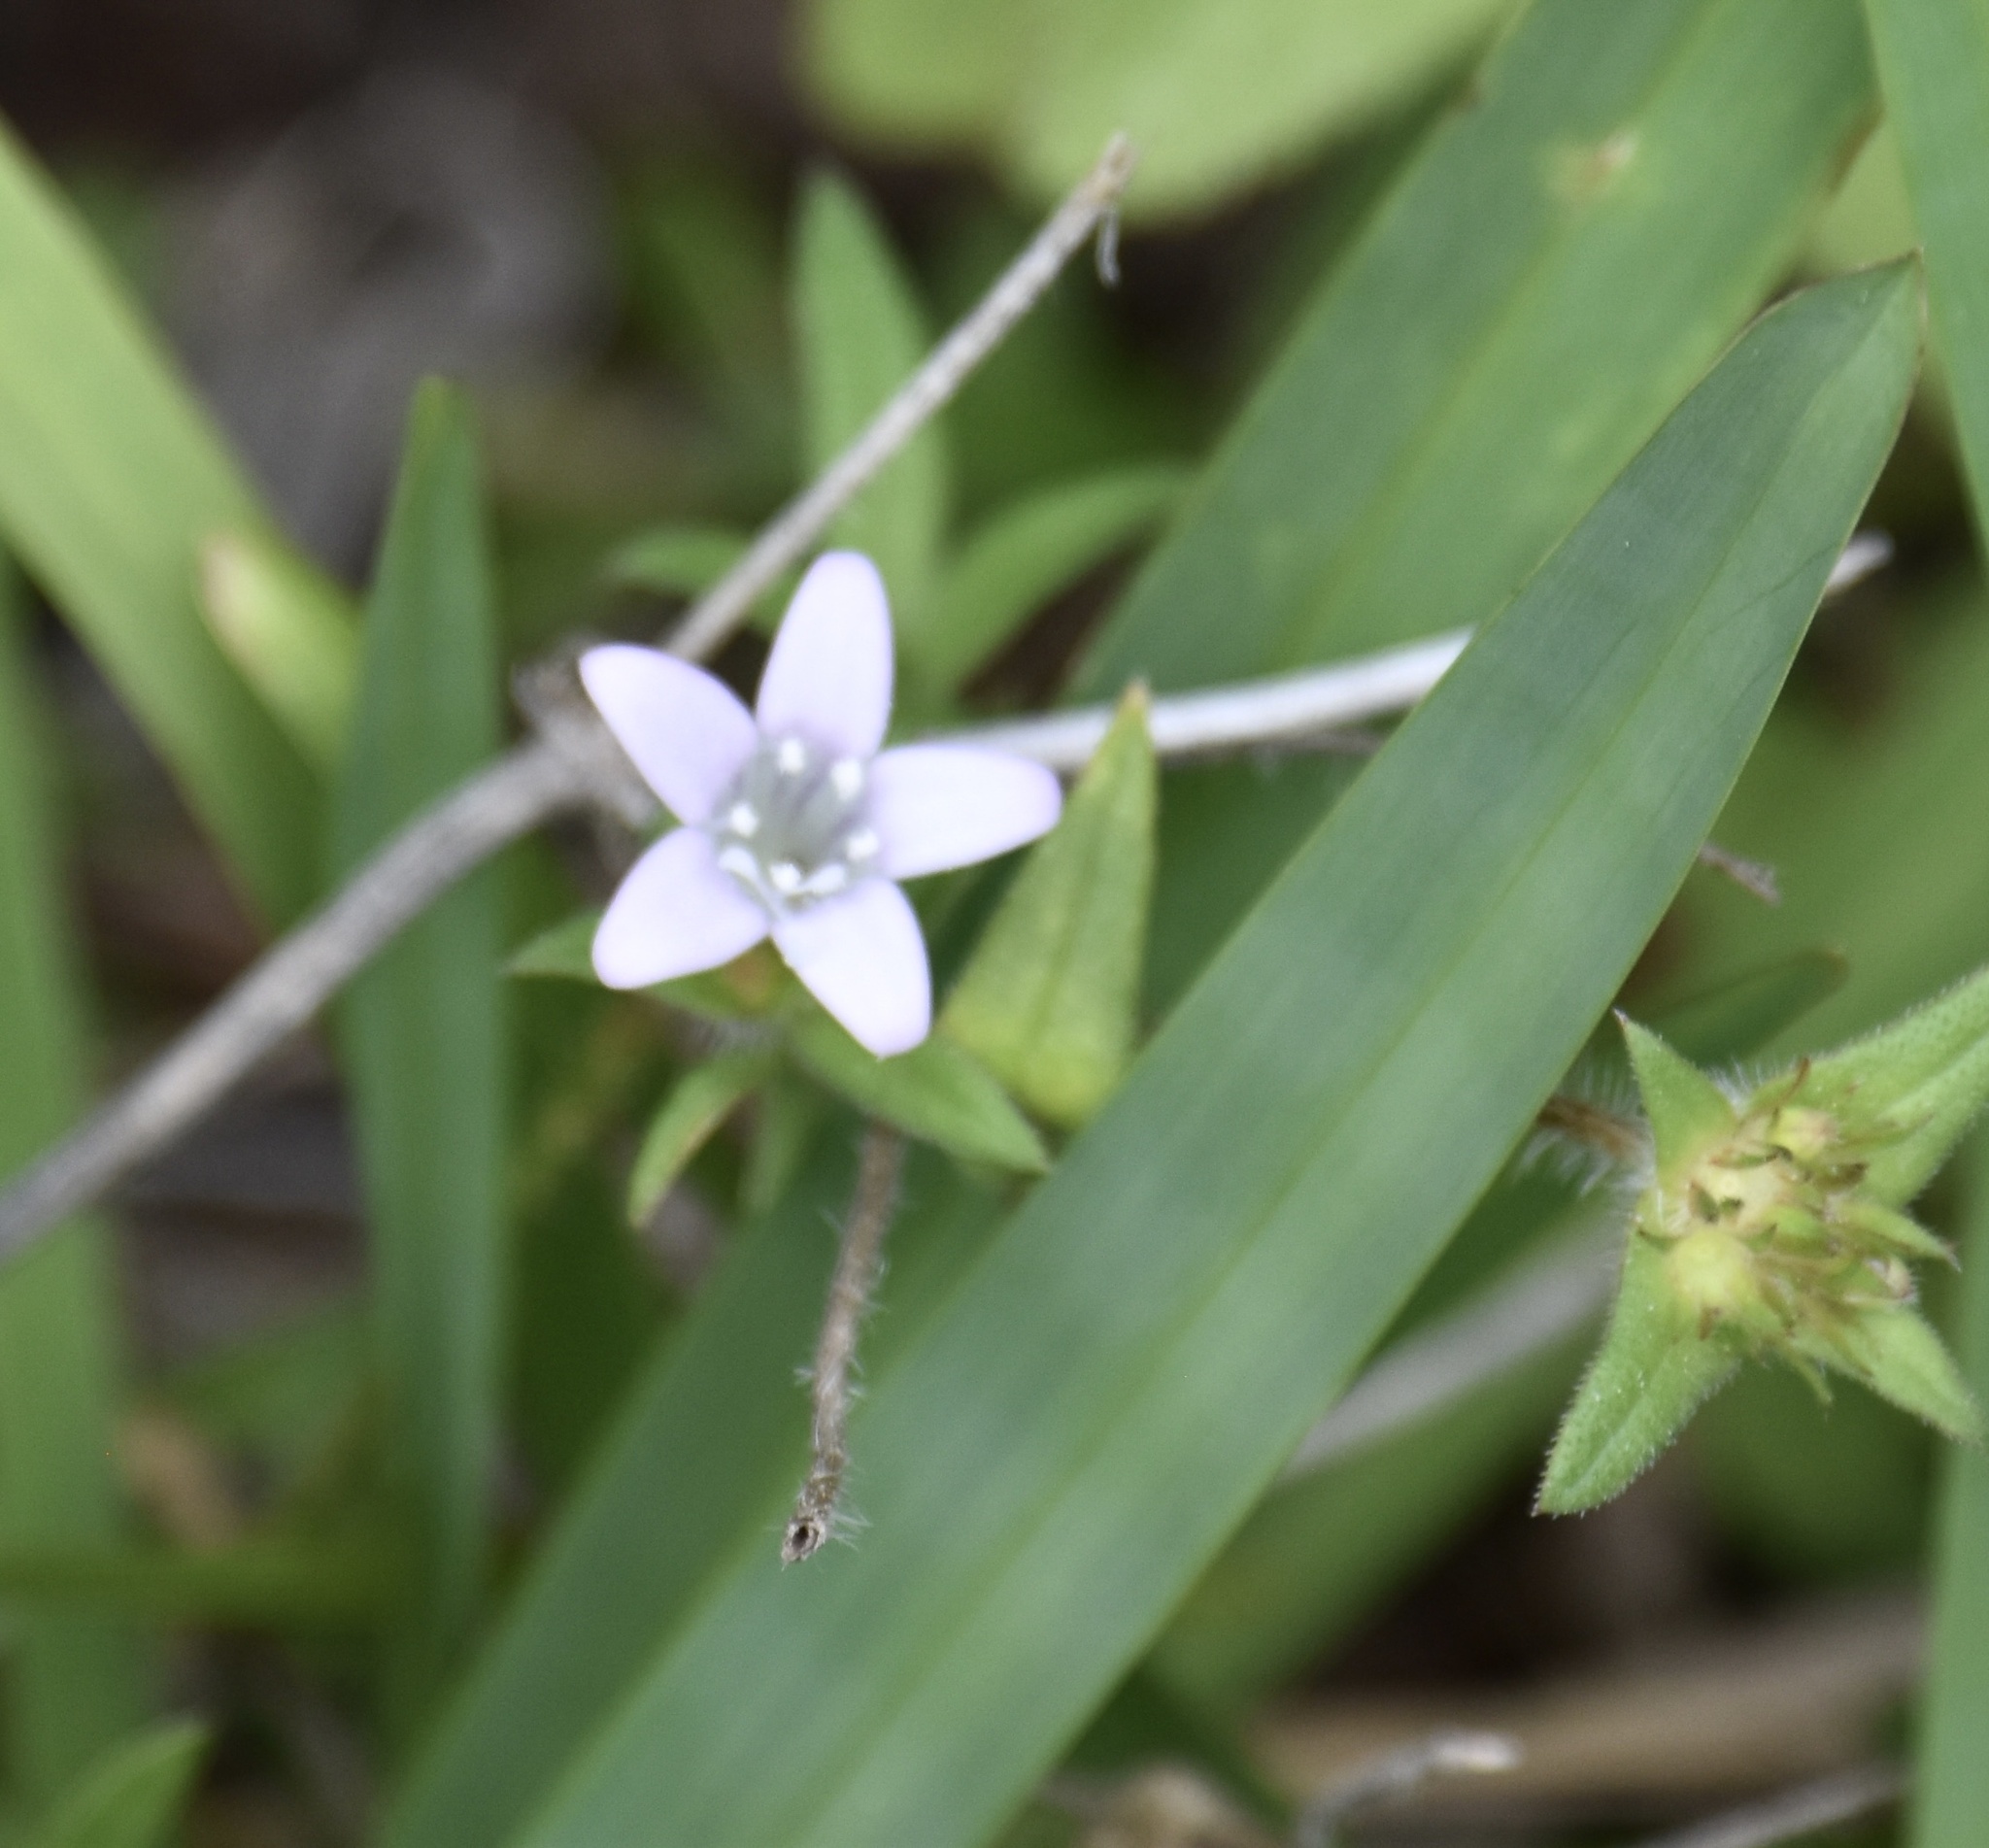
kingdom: Plantae
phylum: Tracheophyta
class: Magnoliopsida
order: Gentianales
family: Rubiaceae
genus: Richardia
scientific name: Richardia grandiflora
